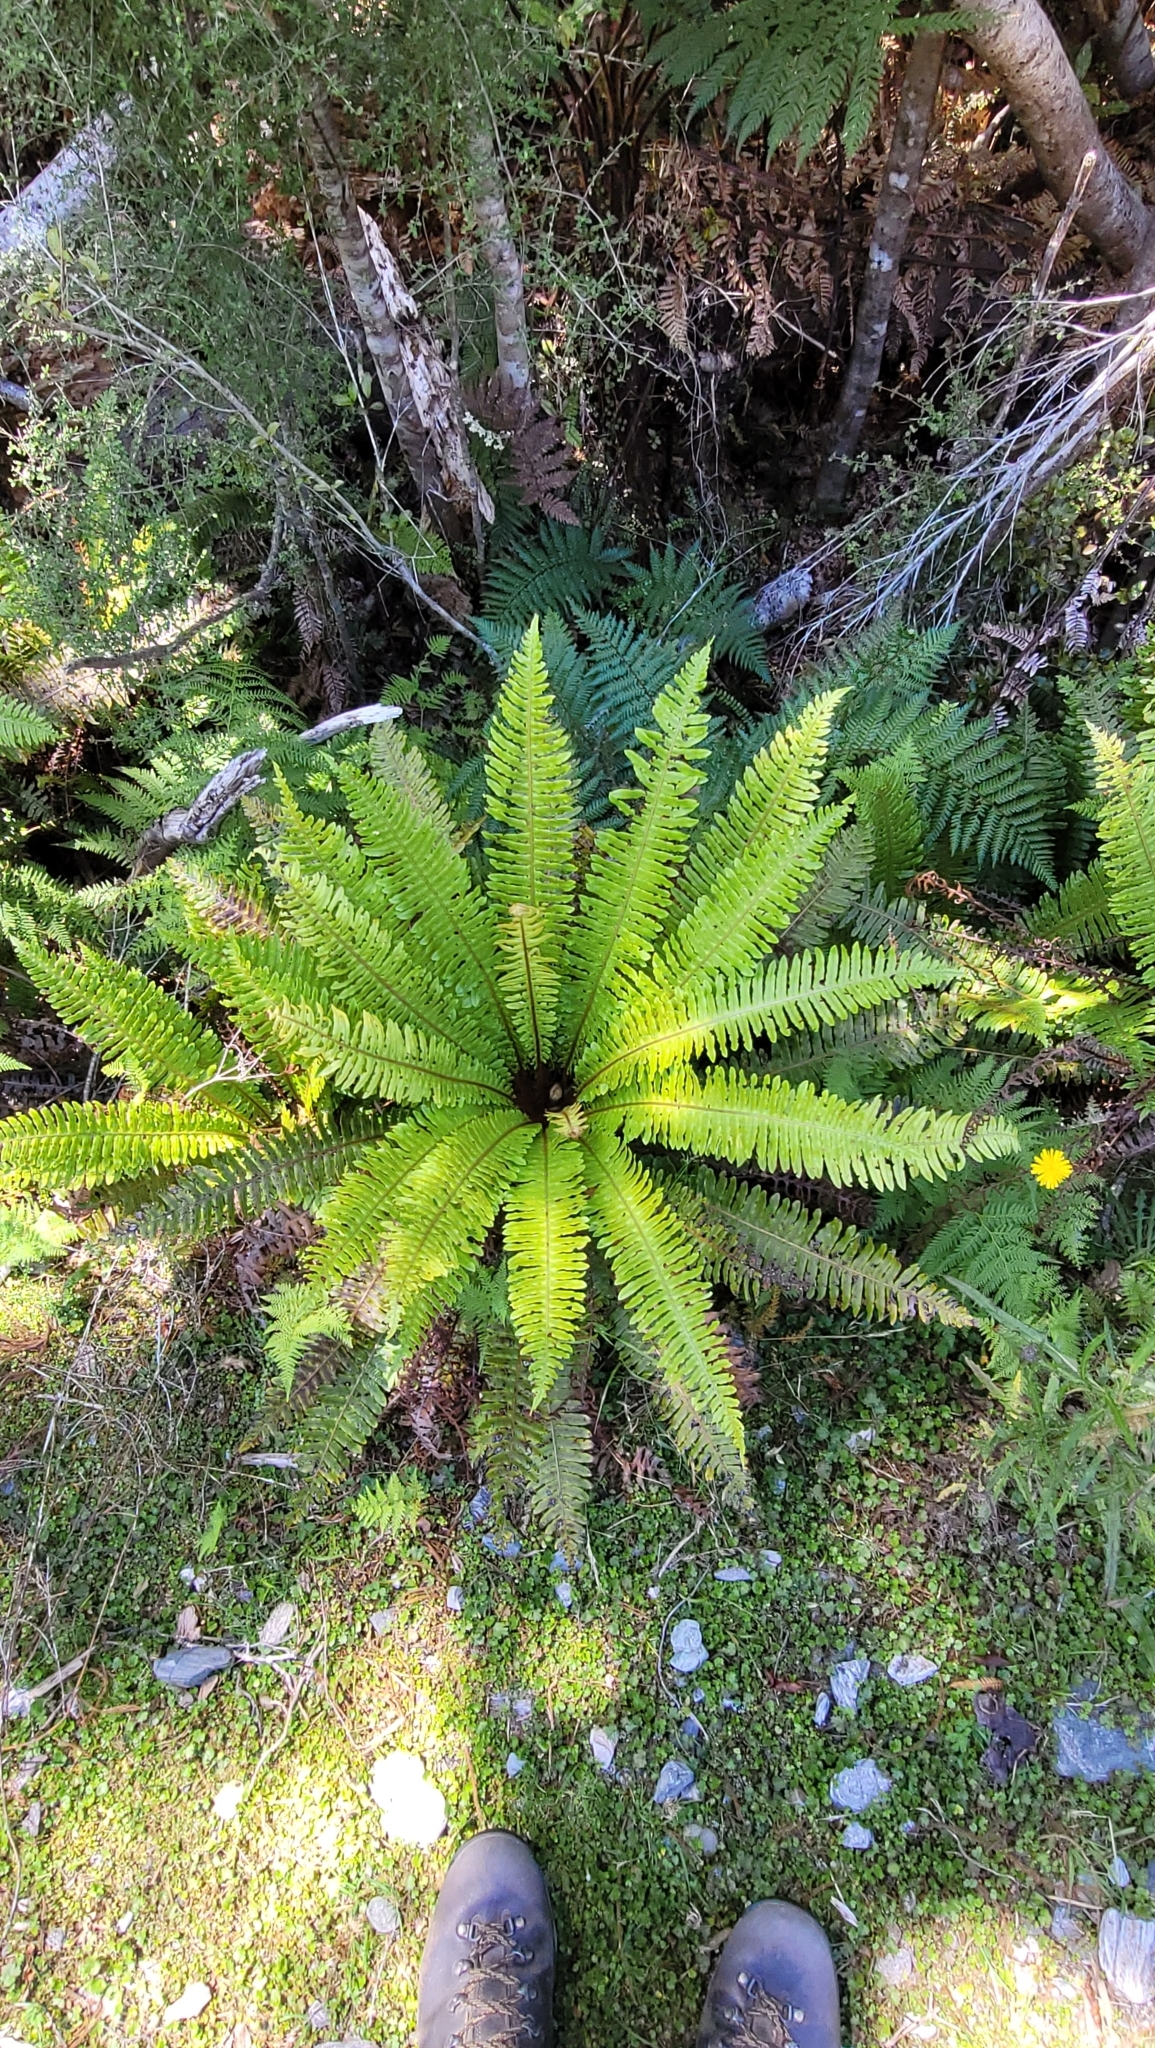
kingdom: Plantae
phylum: Tracheophyta
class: Polypodiopsida
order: Polypodiales
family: Blechnaceae
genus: Lomaria
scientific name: Lomaria discolor
